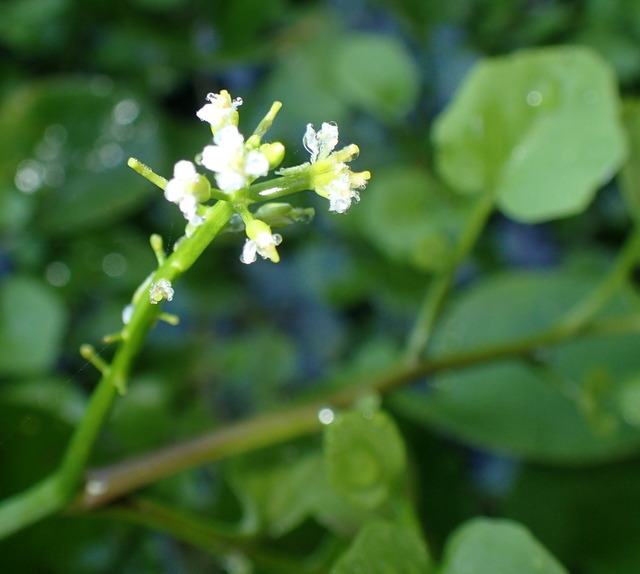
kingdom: Plantae
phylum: Tracheophyta
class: Magnoliopsida
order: Brassicales
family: Brassicaceae
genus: Nasturtium
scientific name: Nasturtium floridanum
